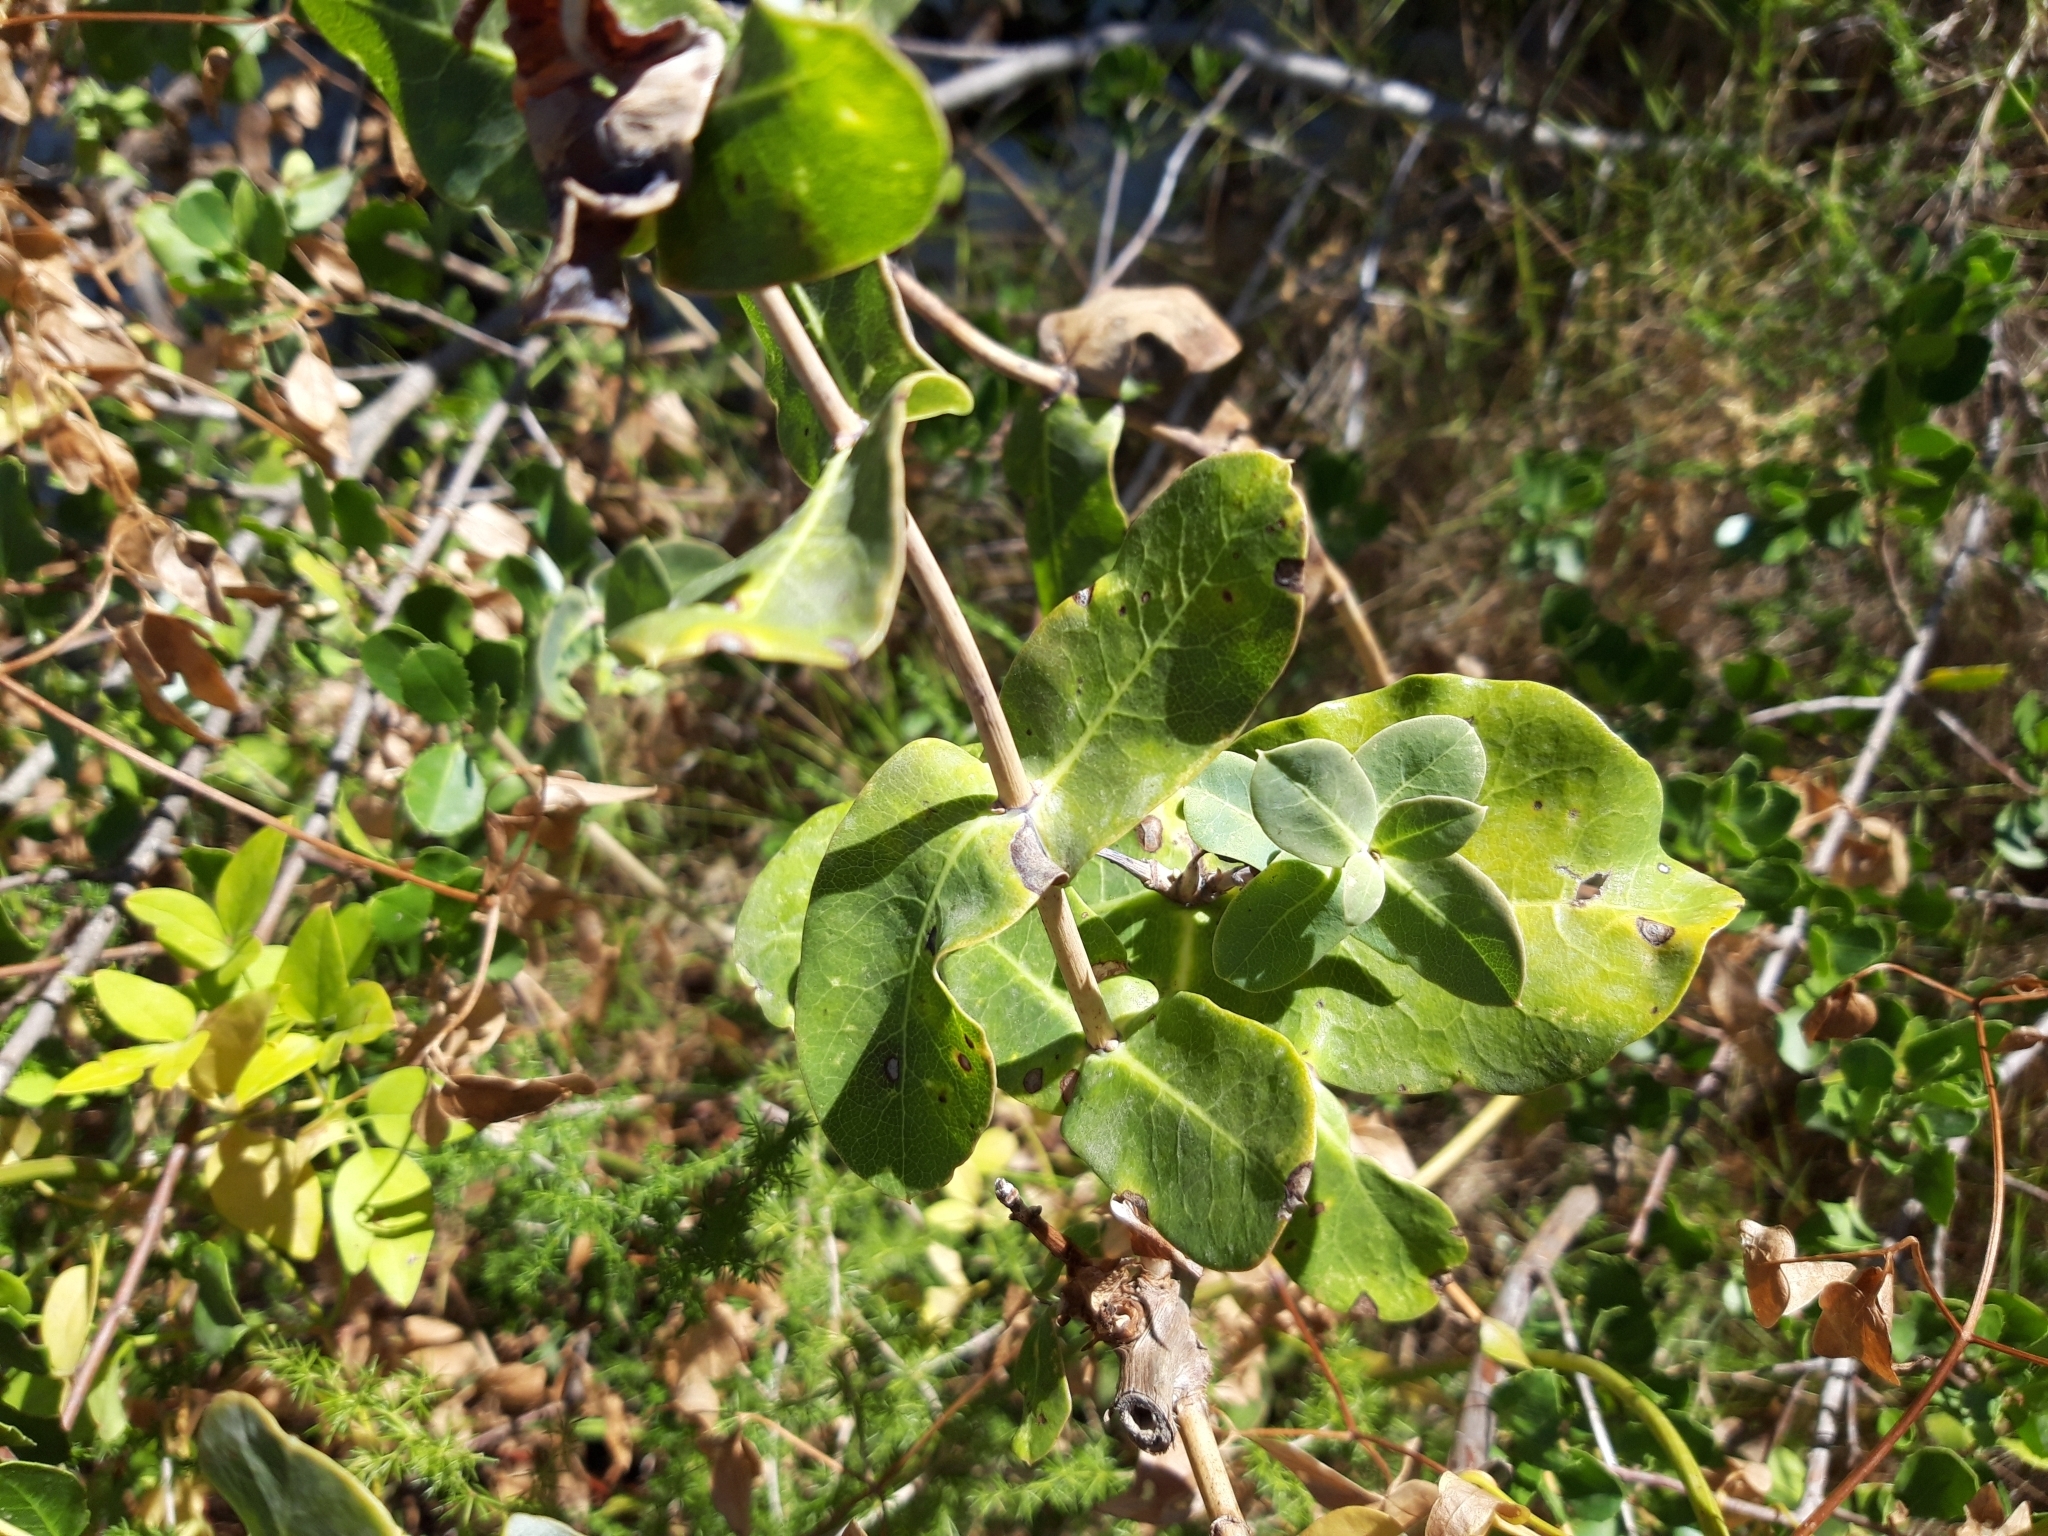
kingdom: Plantae
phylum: Tracheophyta
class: Magnoliopsida
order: Dipsacales
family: Caprifoliaceae
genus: Lonicera
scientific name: Lonicera implexa
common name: Minorca honeysuckle
